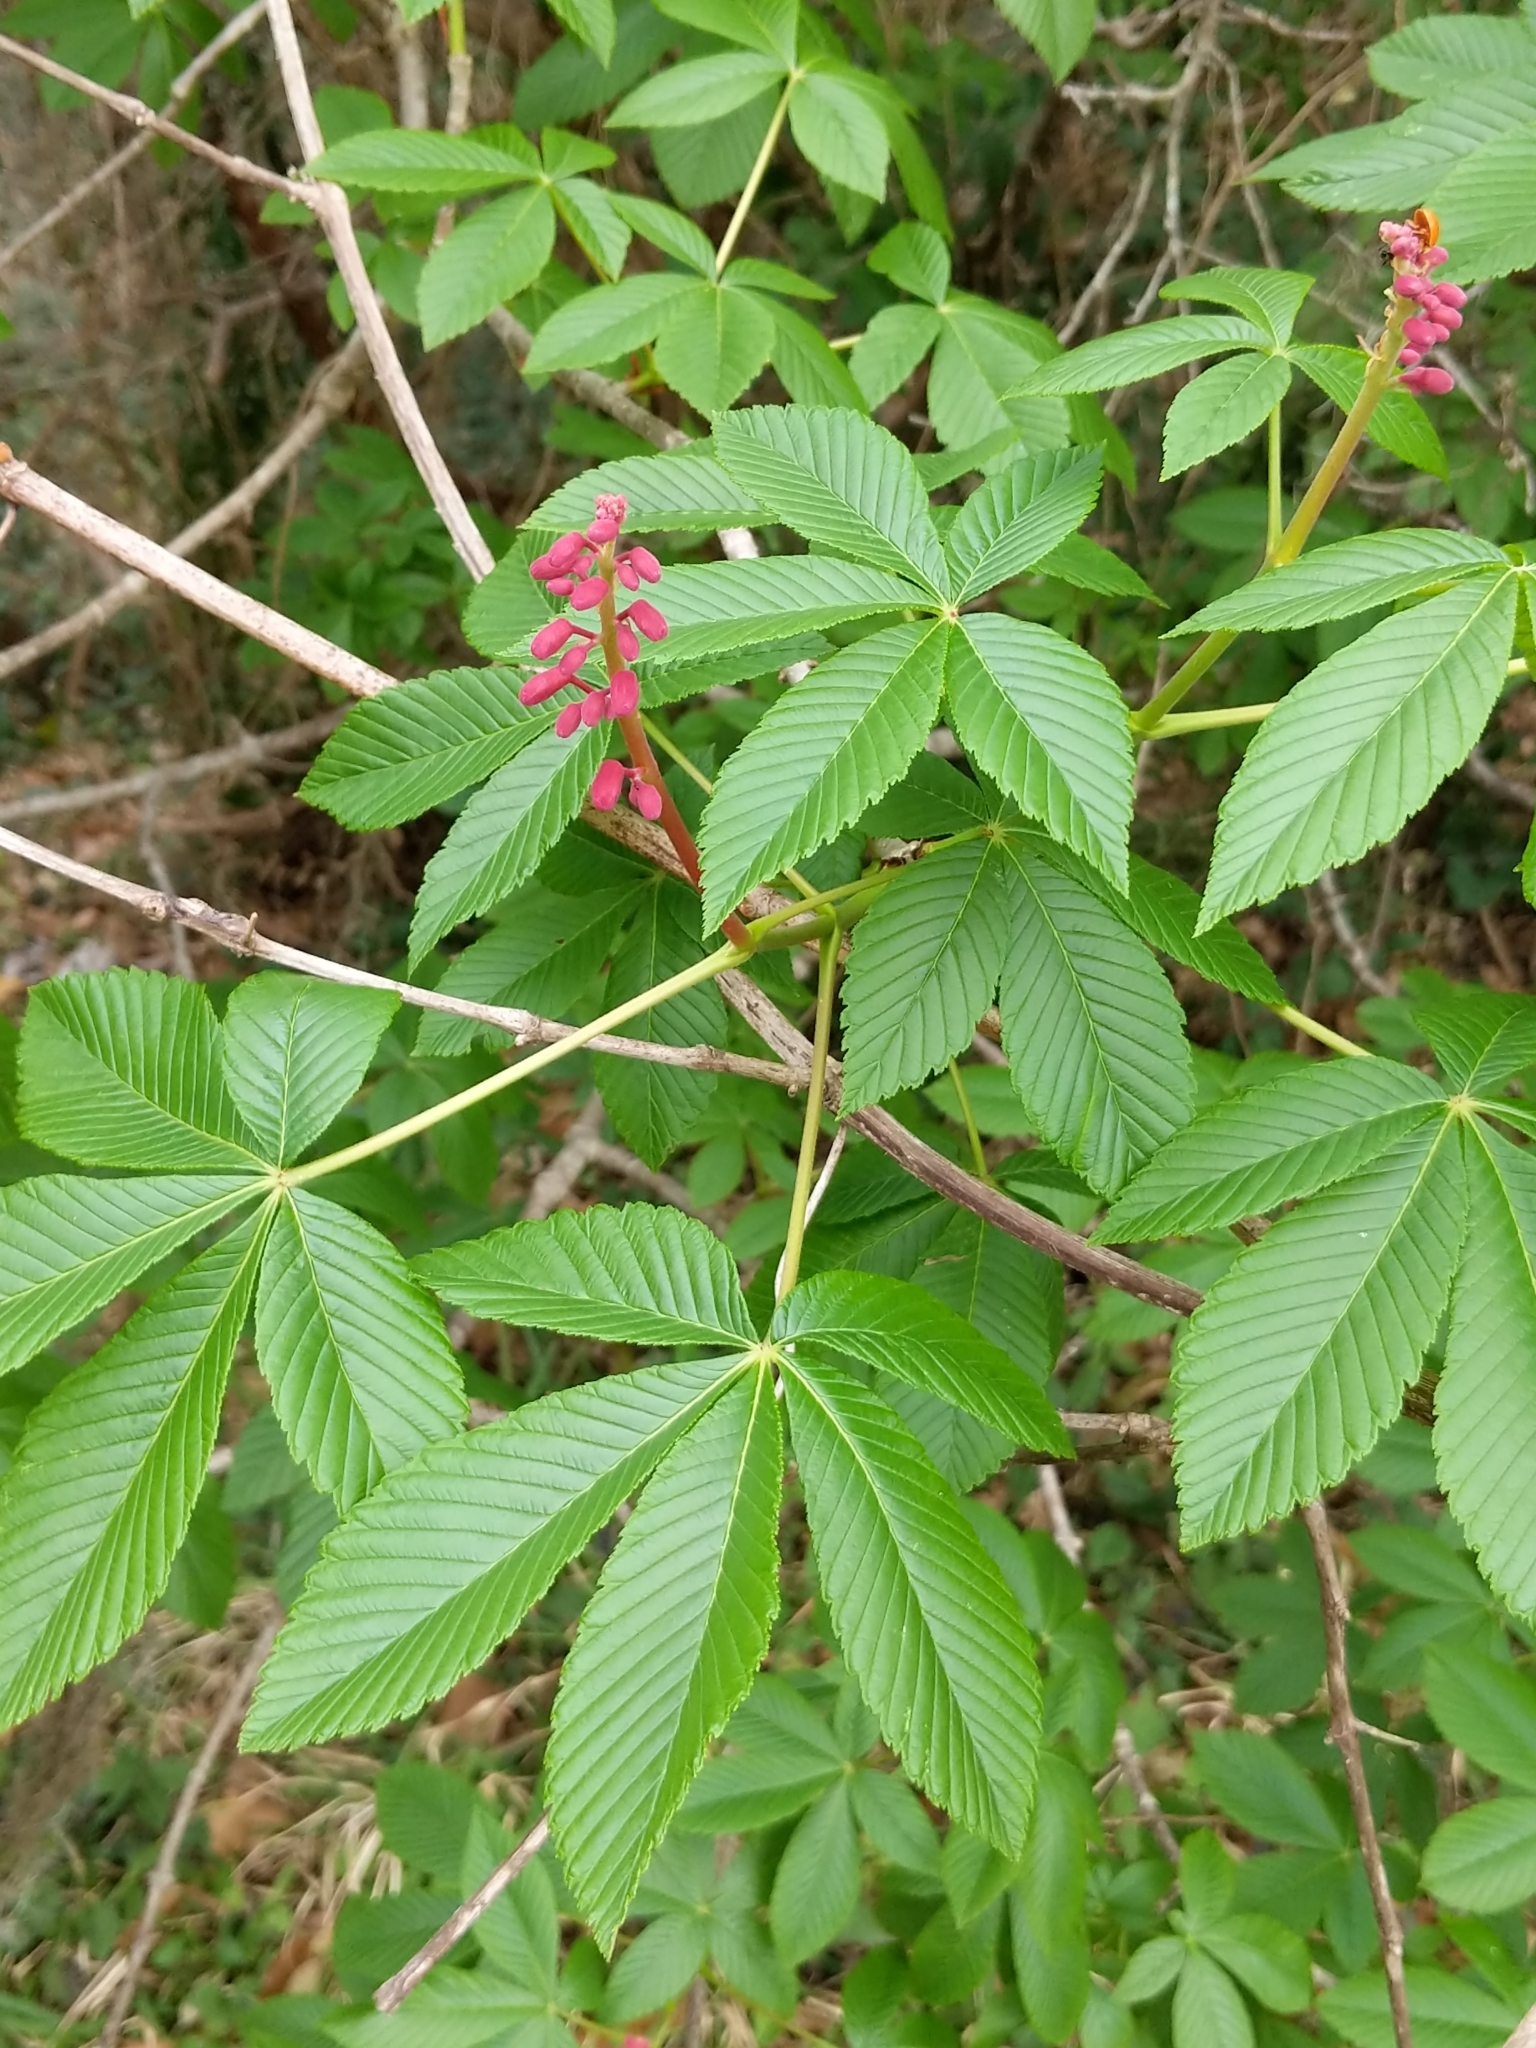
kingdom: Plantae
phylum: Tracheophyta
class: Magnoliopsida
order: Sapindales
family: Sapindaceae
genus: Aesculus
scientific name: Aesculus pavia
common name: Red buckeye
